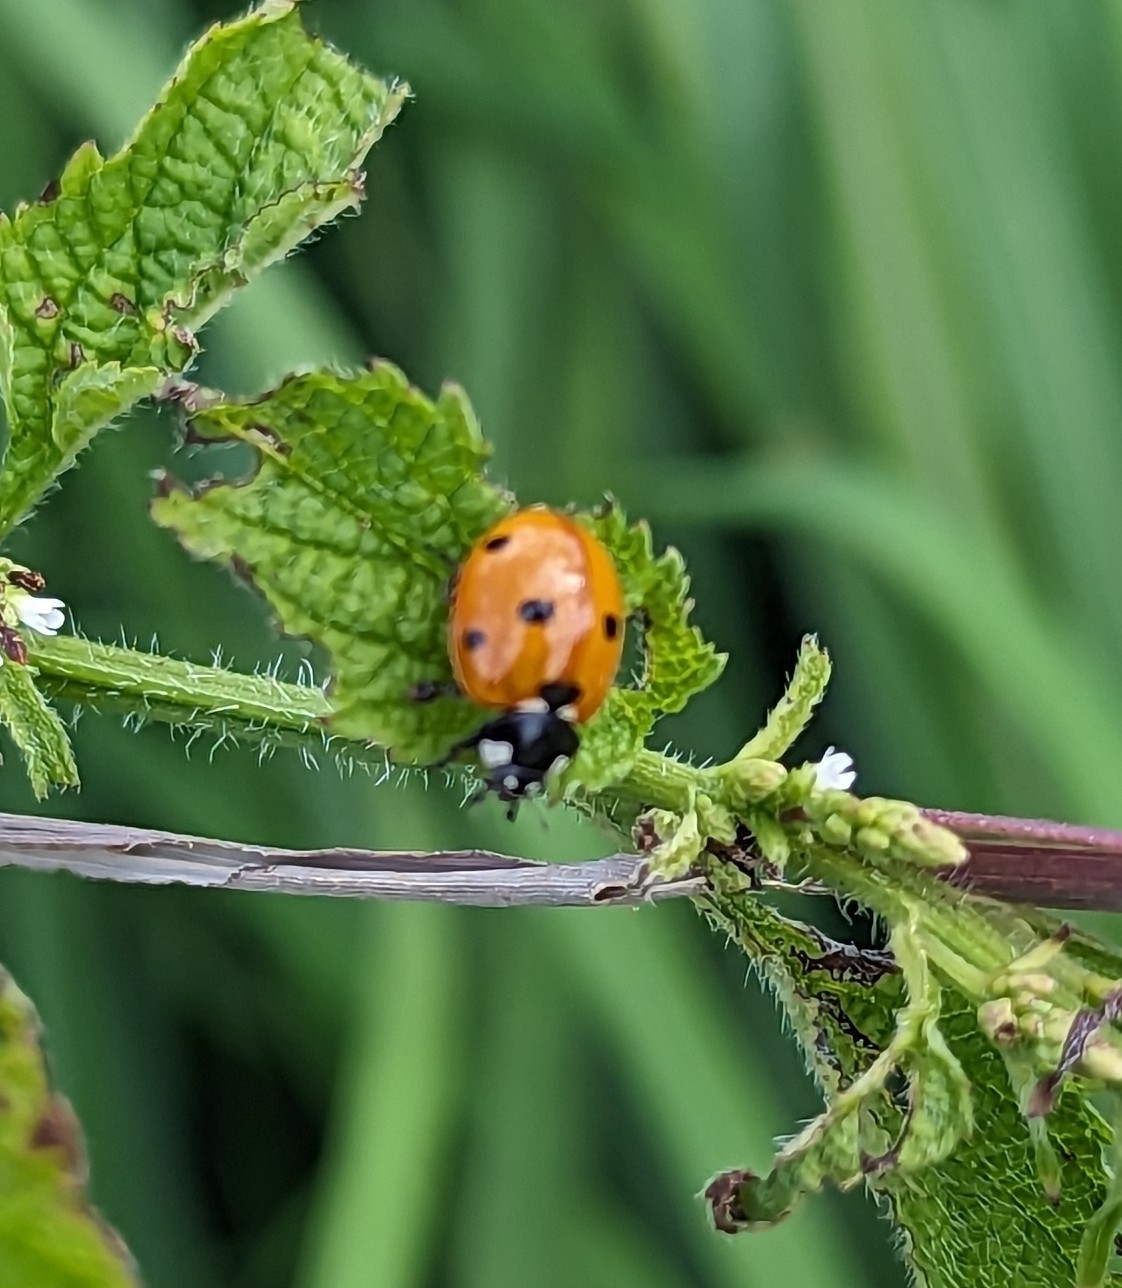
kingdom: Animalia
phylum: Arthropoda
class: Insecta
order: Coleoptera
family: Coccinellidae
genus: Coccinella
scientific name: Coccinella septempunctata
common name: Sevenspotted lady beetle
